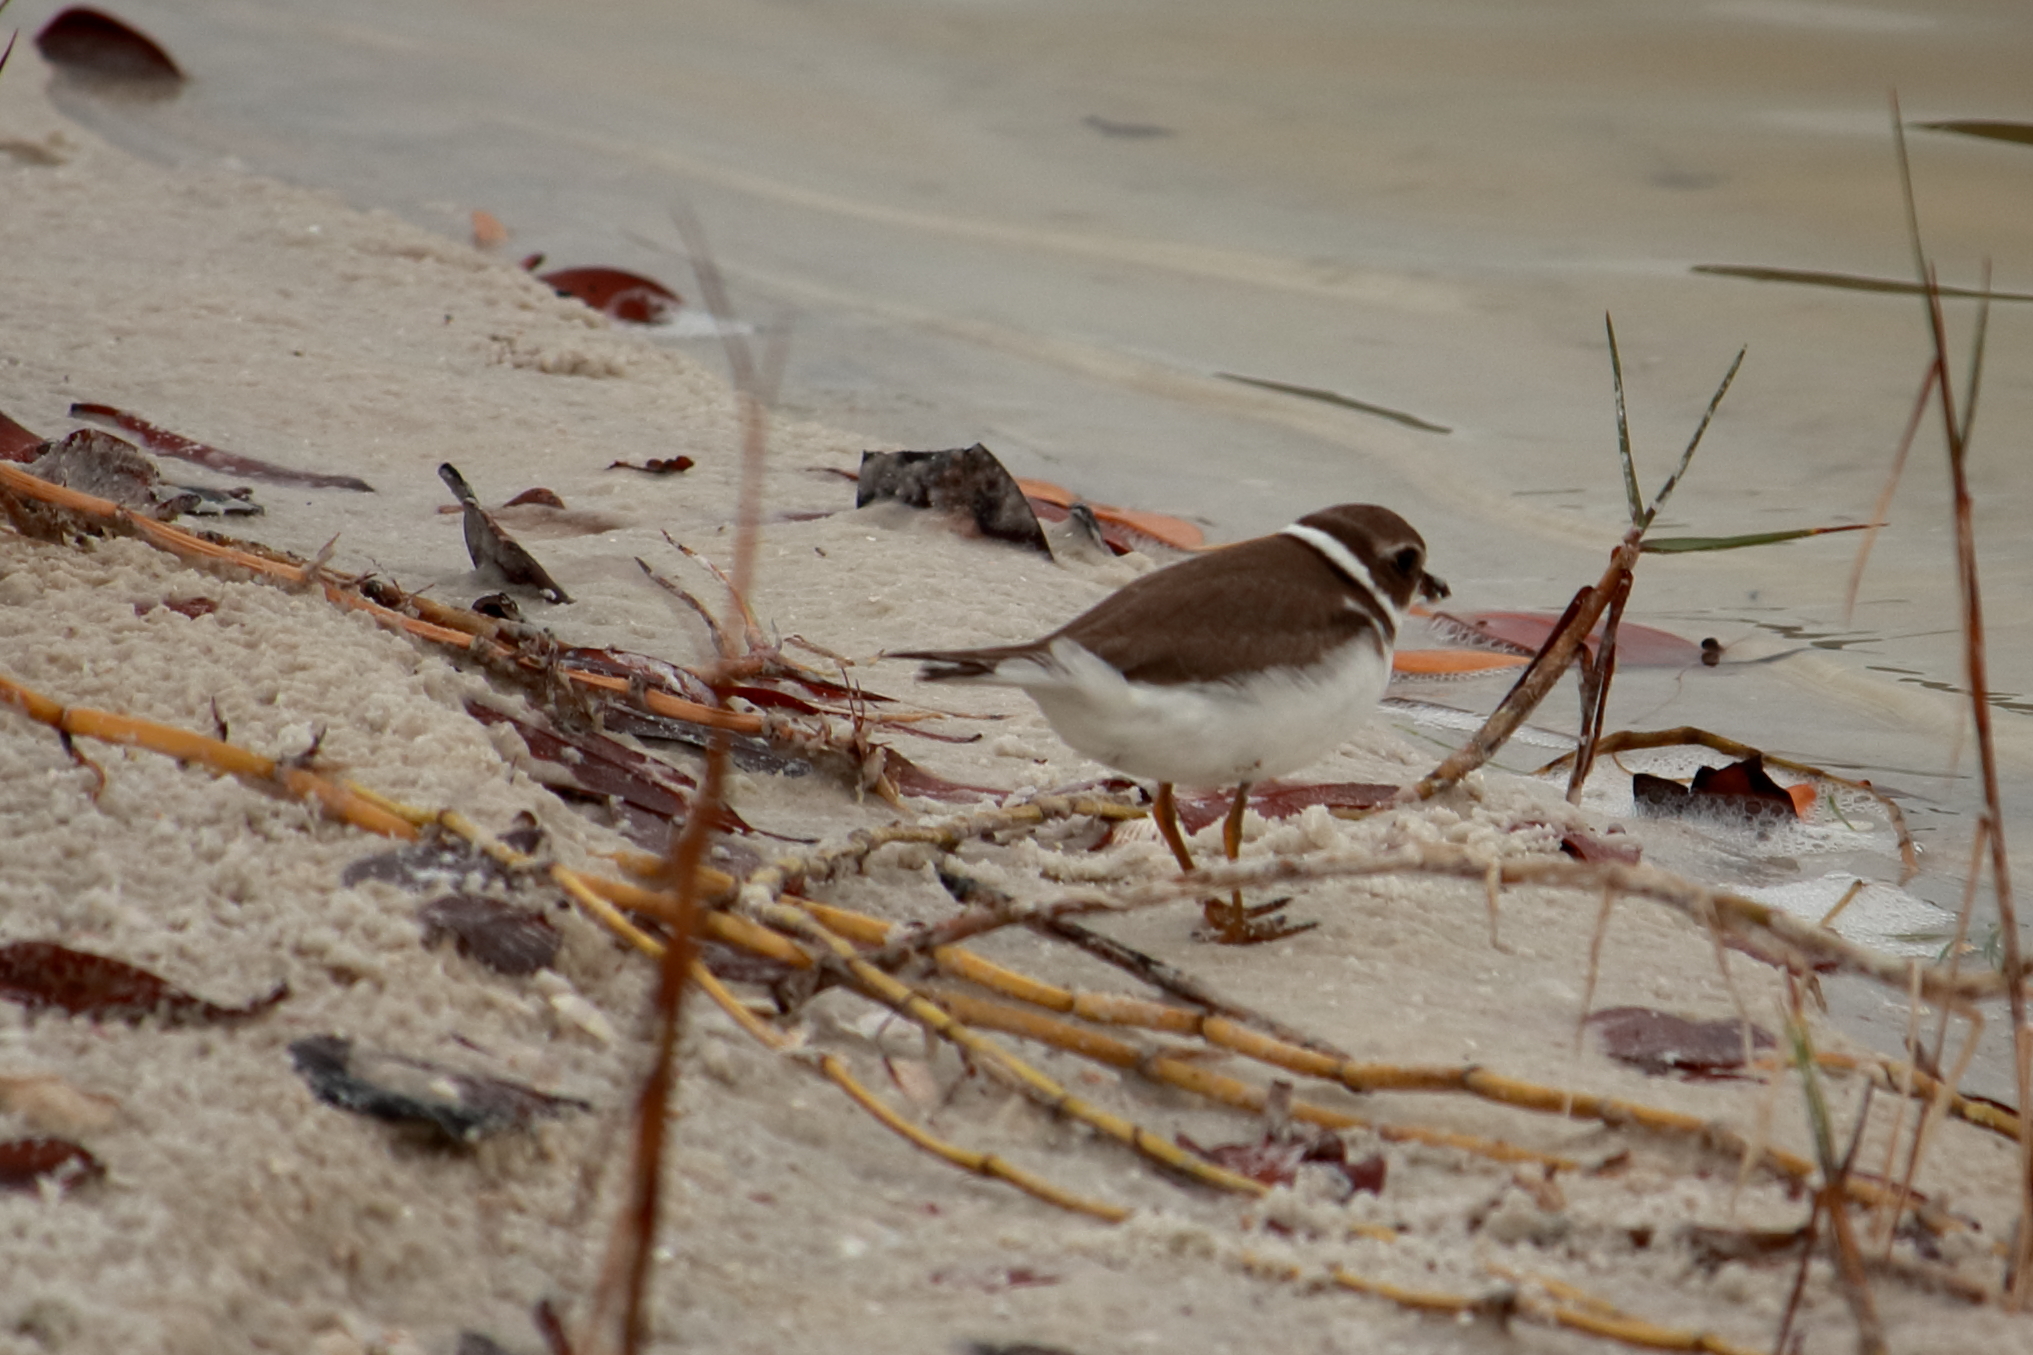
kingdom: Animalia
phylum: Chordata
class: Aves
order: Charadriiformes
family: Charadriidae
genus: Charadrius
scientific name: Charadrius semipalmatus
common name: Semipalmated plover
